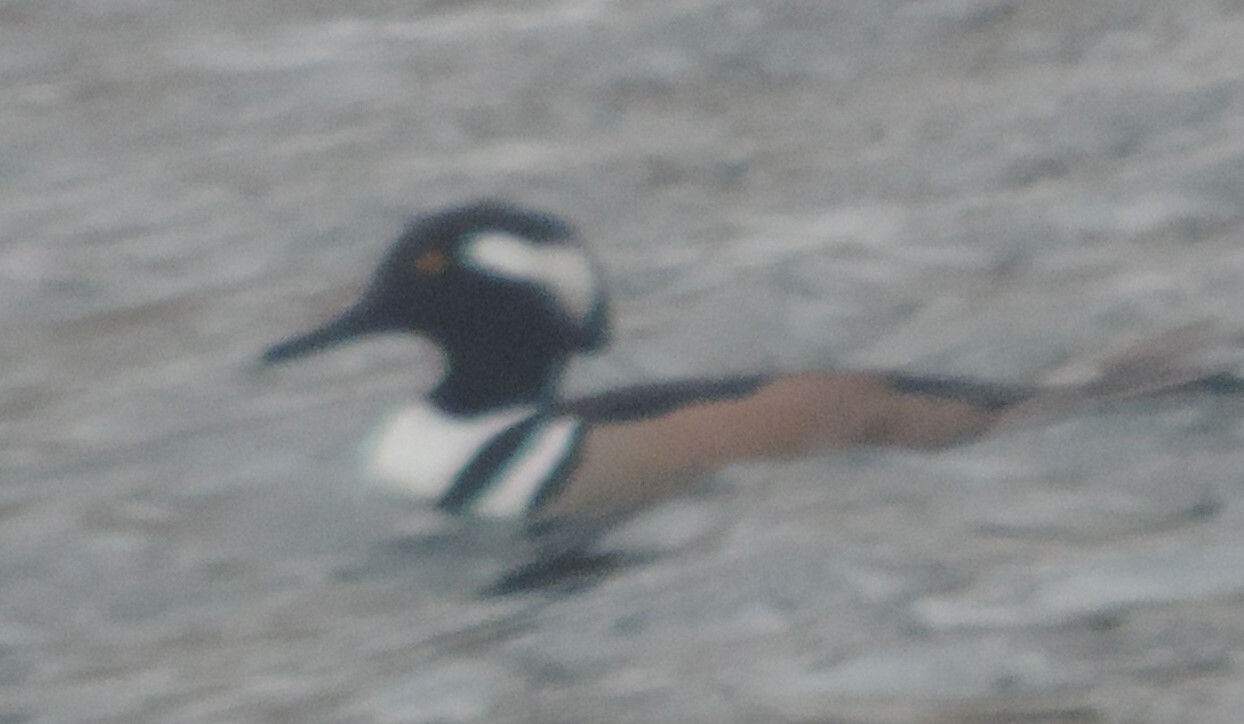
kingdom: Animalia
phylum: Chordata
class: Aves
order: Anseriformes
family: Anatidae
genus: Lophodytes
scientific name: Lophodytes cucullatus
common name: Hooded merganser
